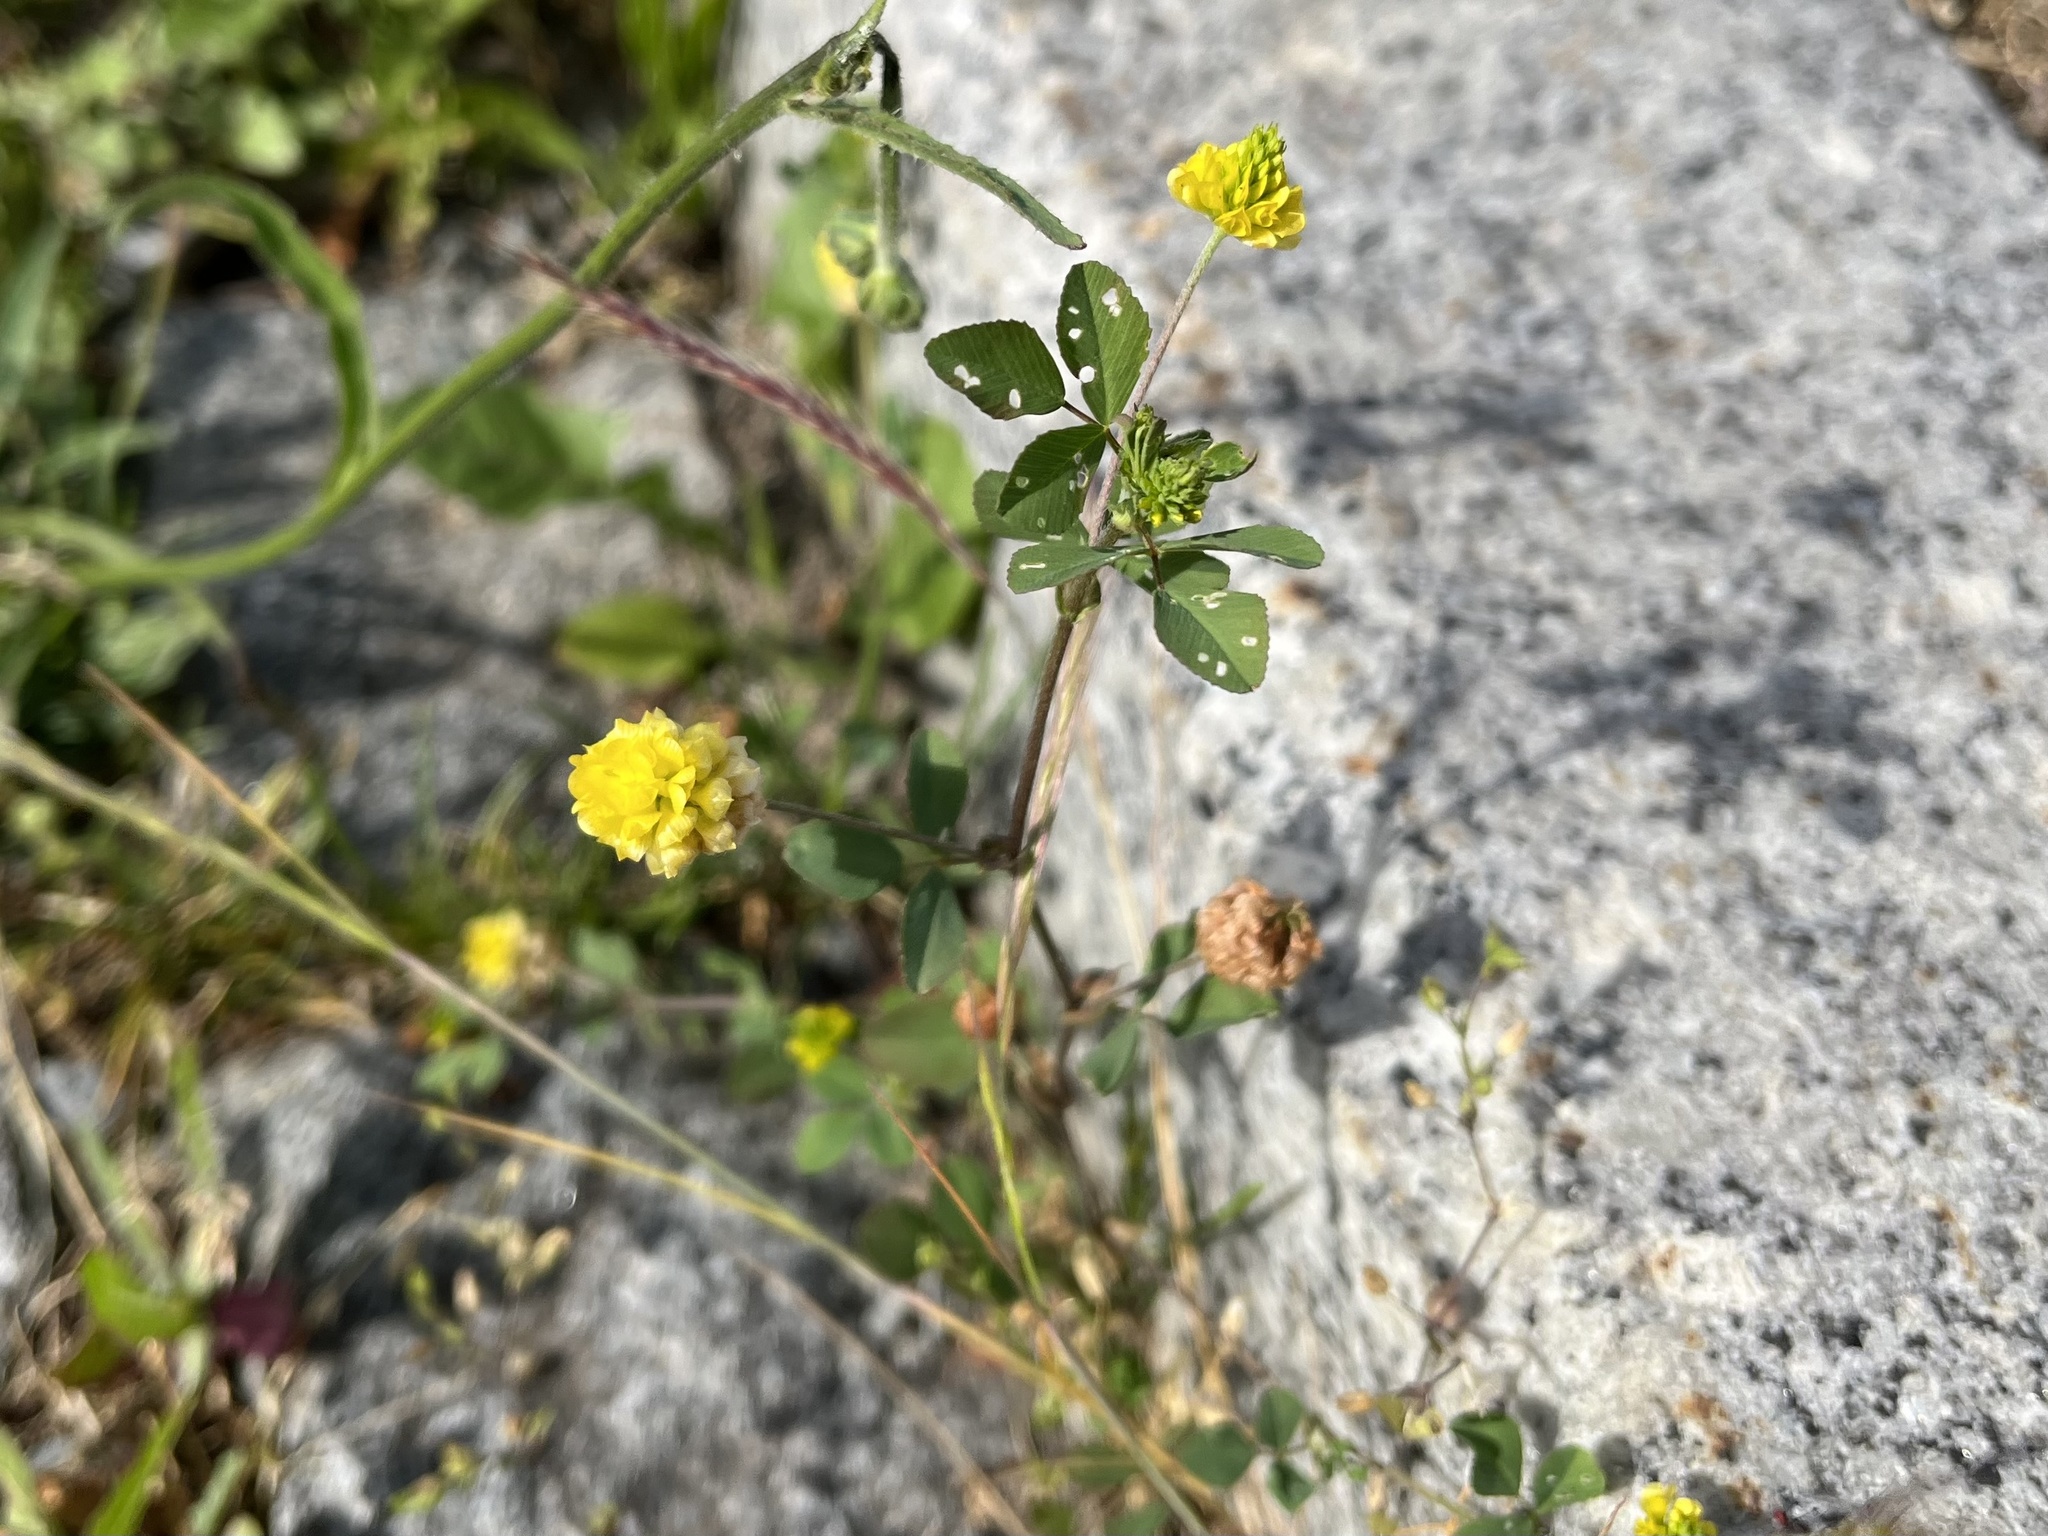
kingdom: Plantae
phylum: Tracheophyta
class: Magnoliopsida
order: Fabales
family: Fabaceae
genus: Trifolium
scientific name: Trifolium campestre
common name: Field clover
